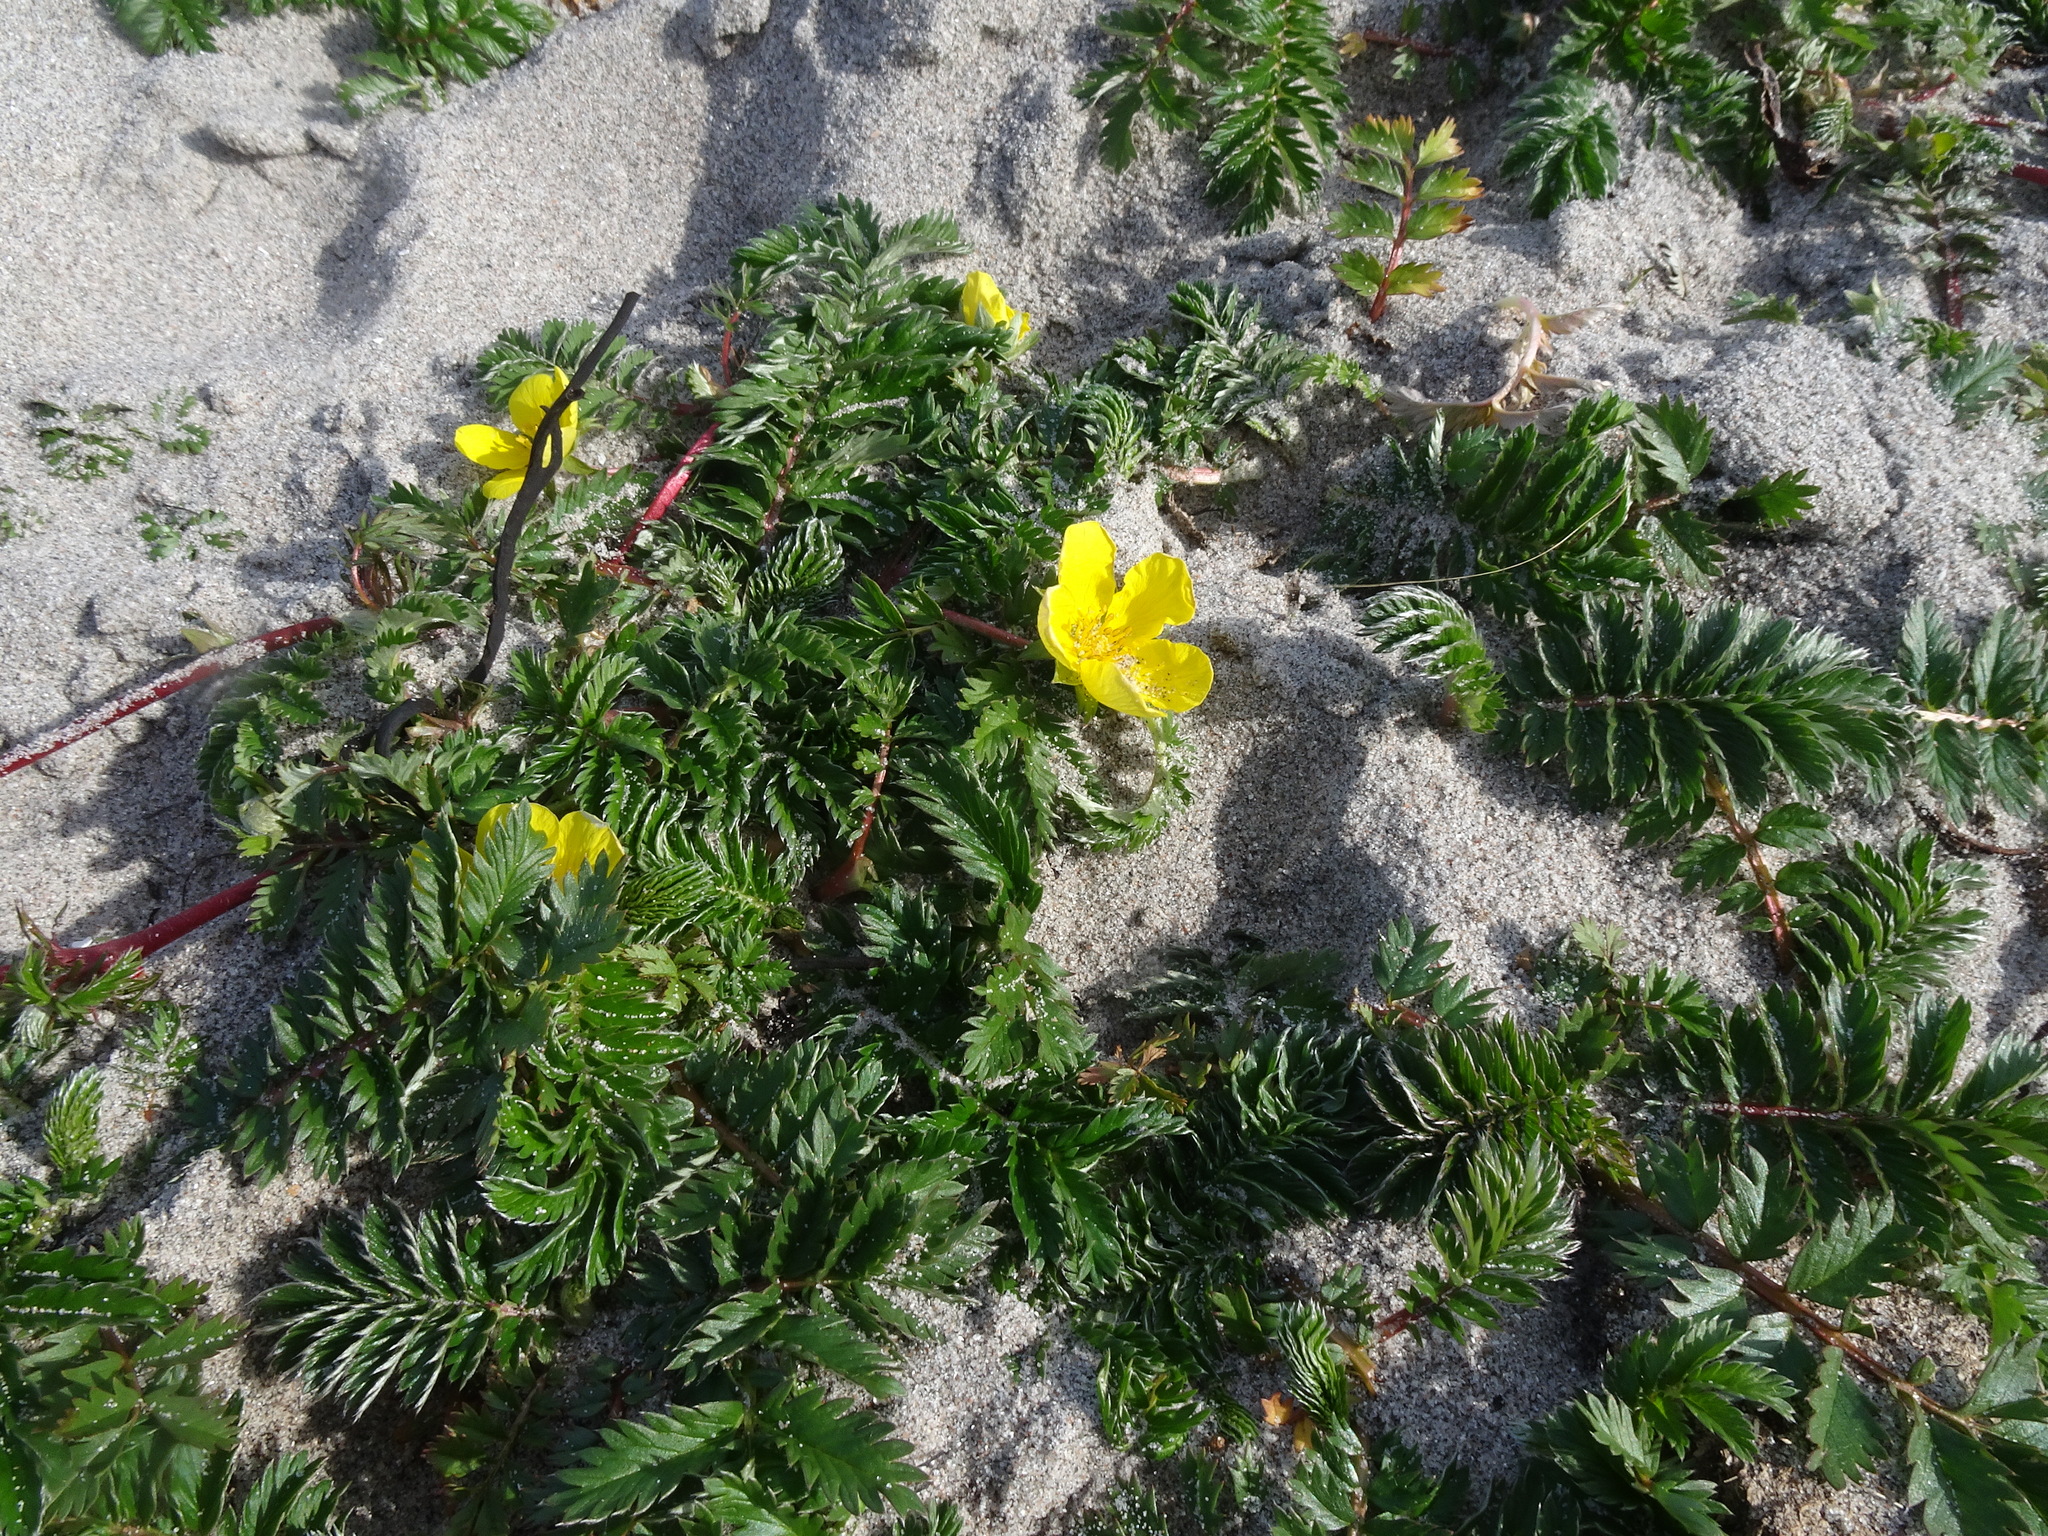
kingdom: Plantae
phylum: Tracheophyta
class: Magnoliopsida
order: Rosales
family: Rosaceae
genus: Argentina
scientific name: Argentina anserina
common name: Common silverweed
